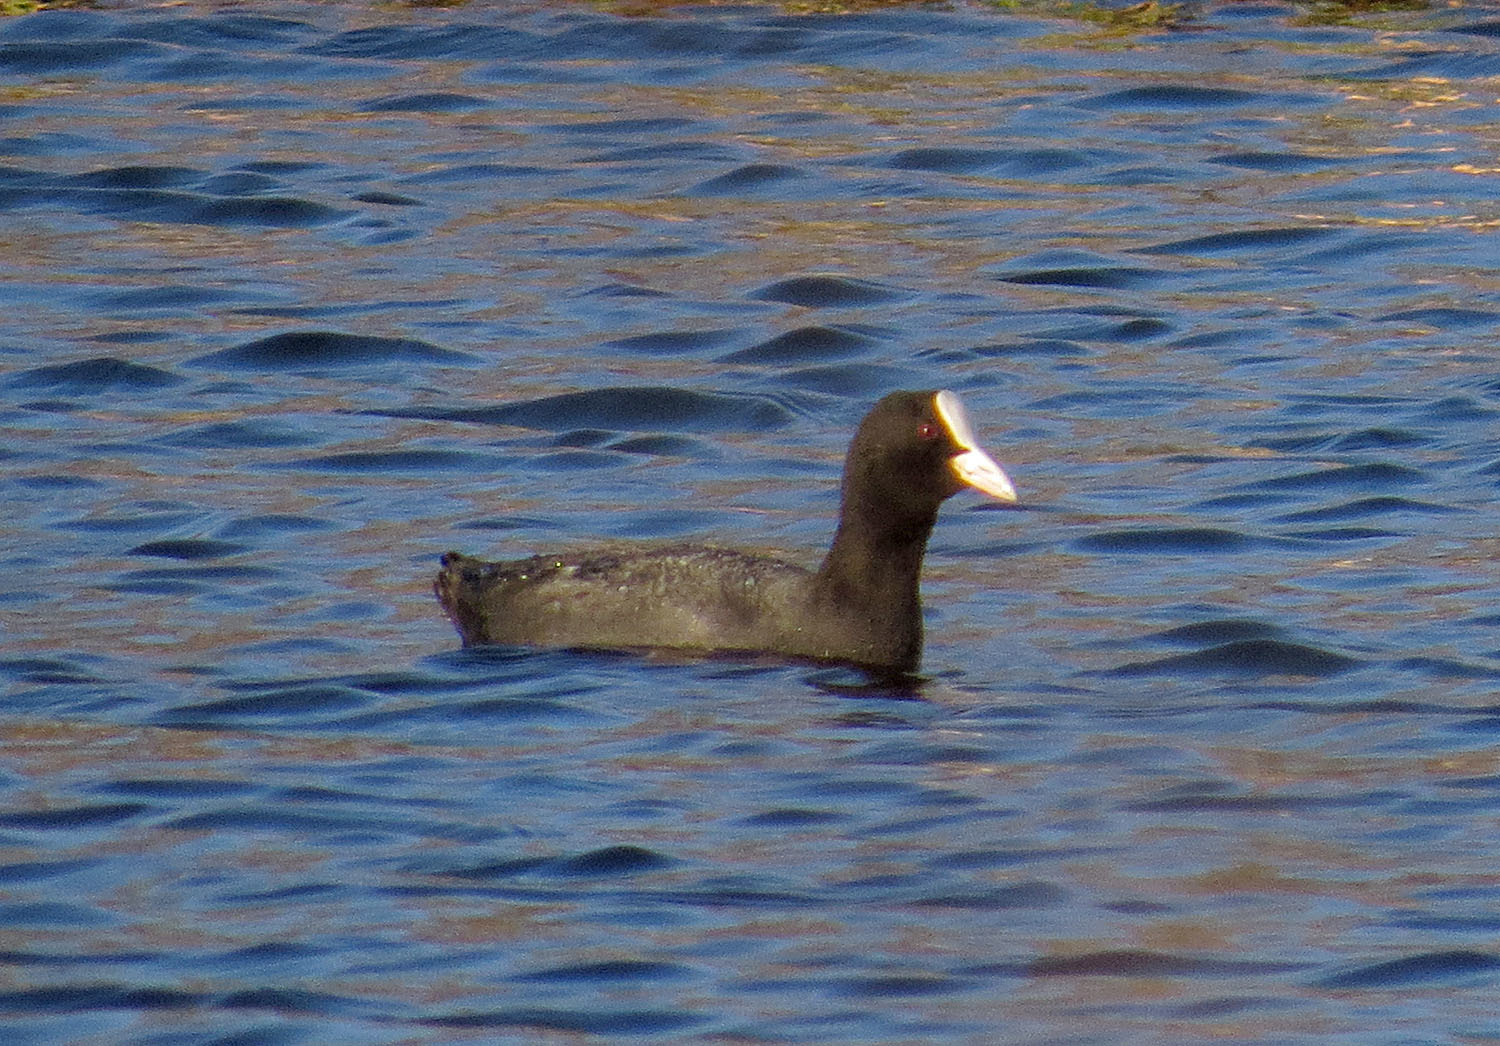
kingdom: Animalia
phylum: Chordata
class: Aves
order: Gruiformes
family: Rallidae
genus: Fulica
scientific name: Fulica atra
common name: Eurasian coot
